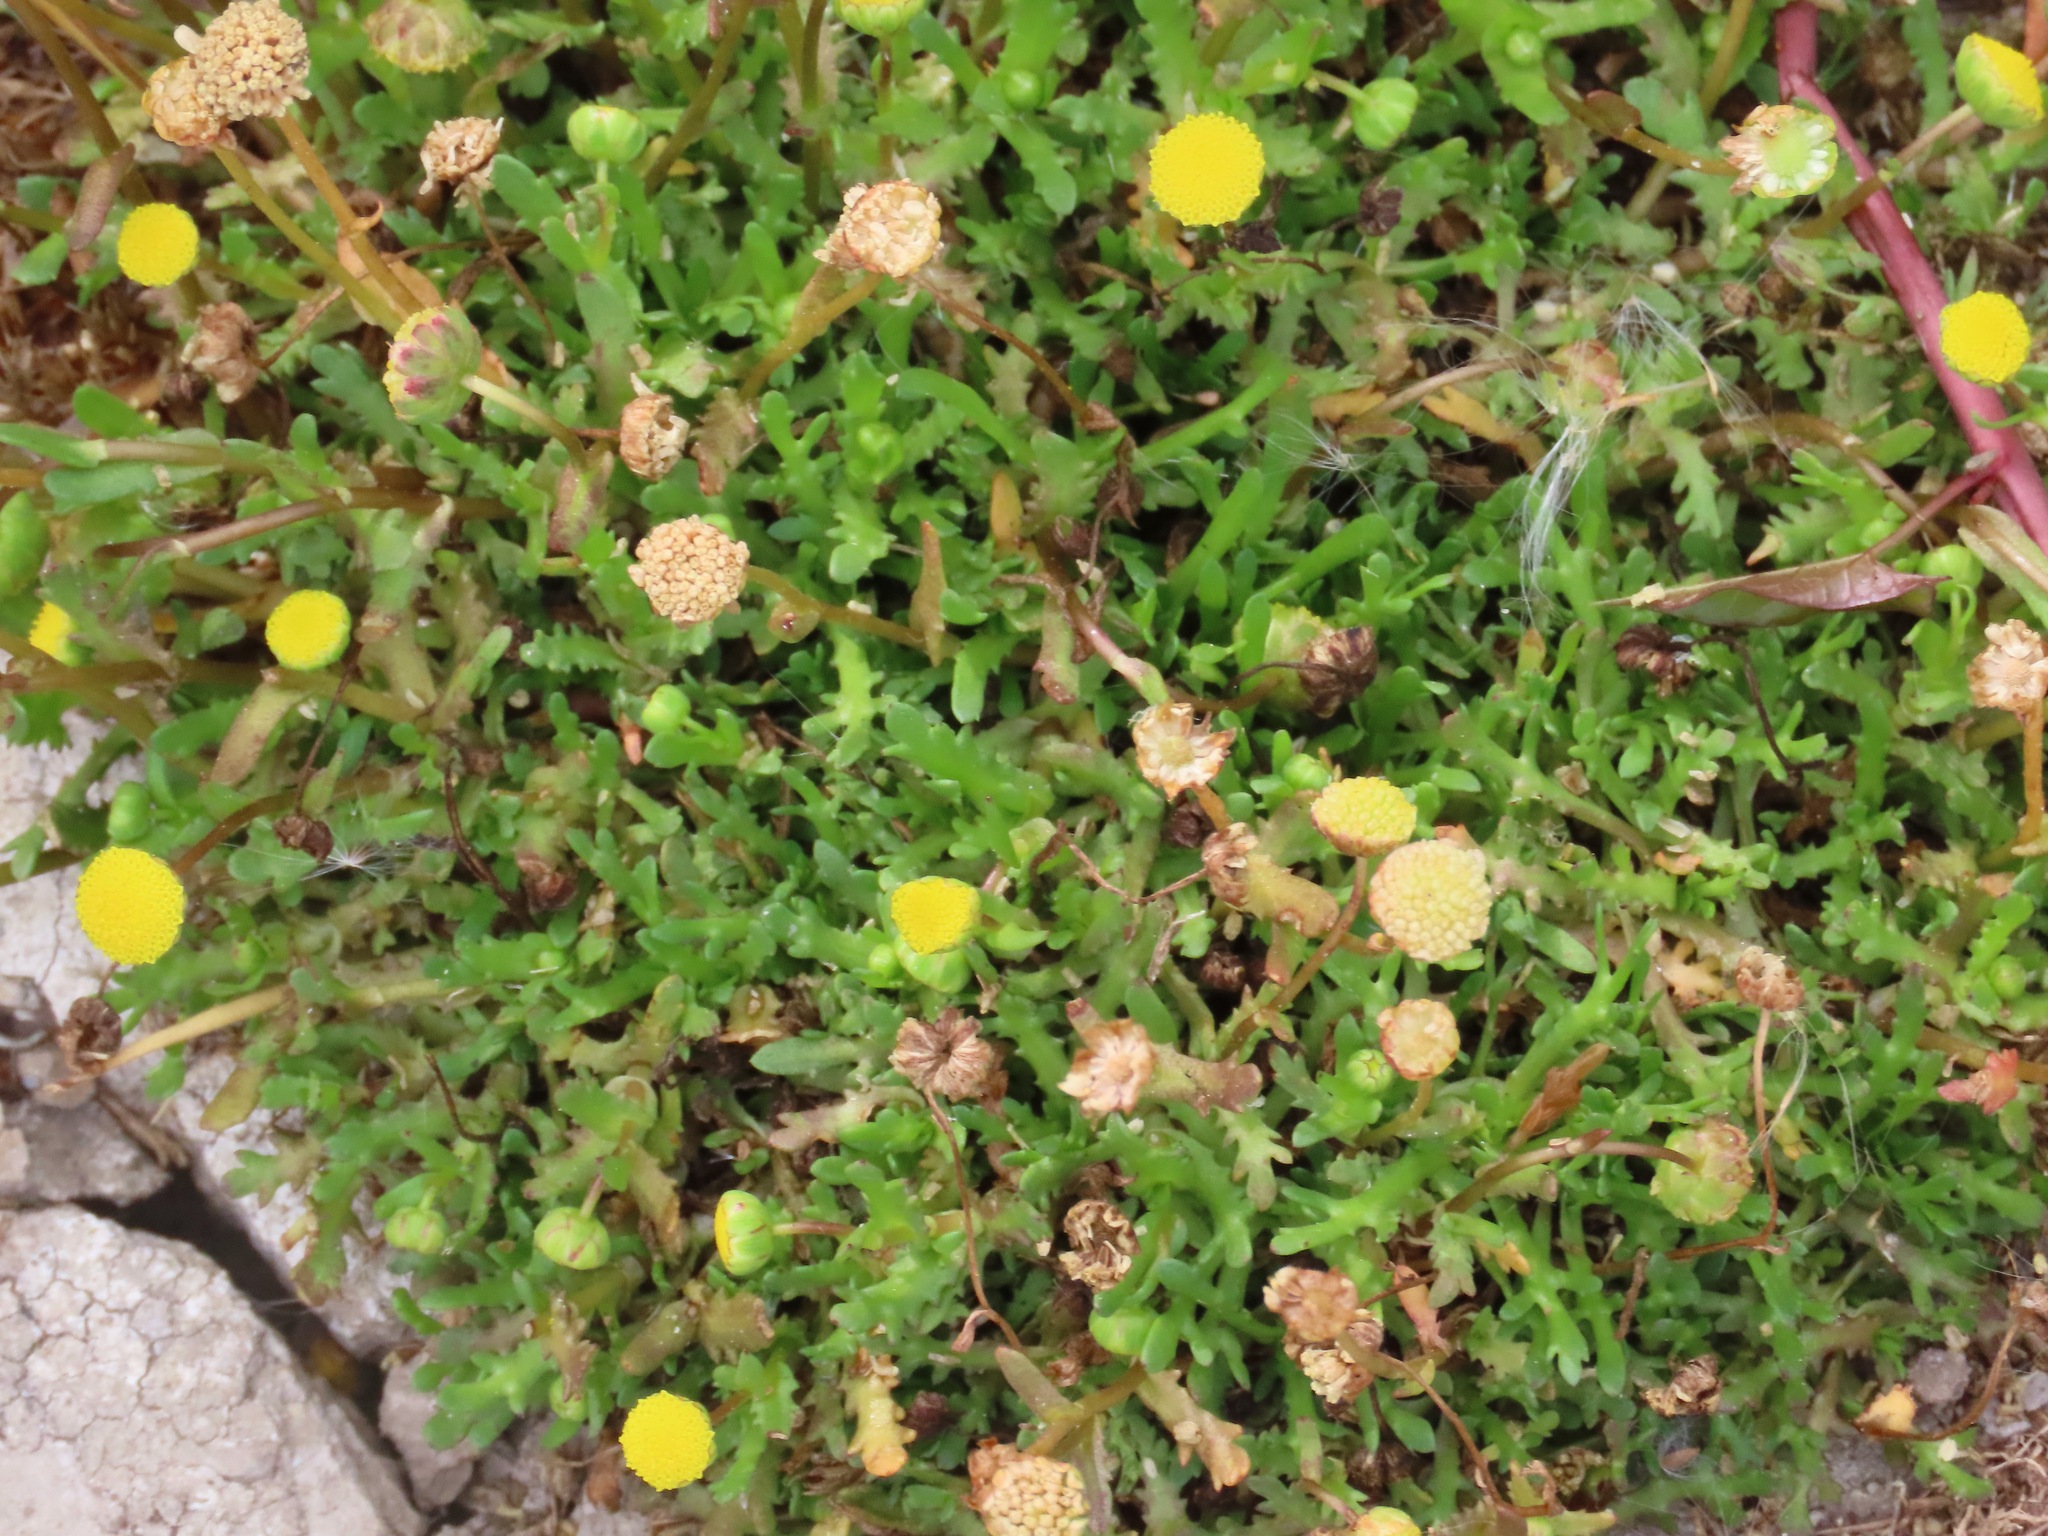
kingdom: Plantae
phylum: Tracheophyta
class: Magnoliopsida
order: Asterales
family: Asteraceae
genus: Cotula
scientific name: Cotula coronopifolia
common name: Buttonweed
